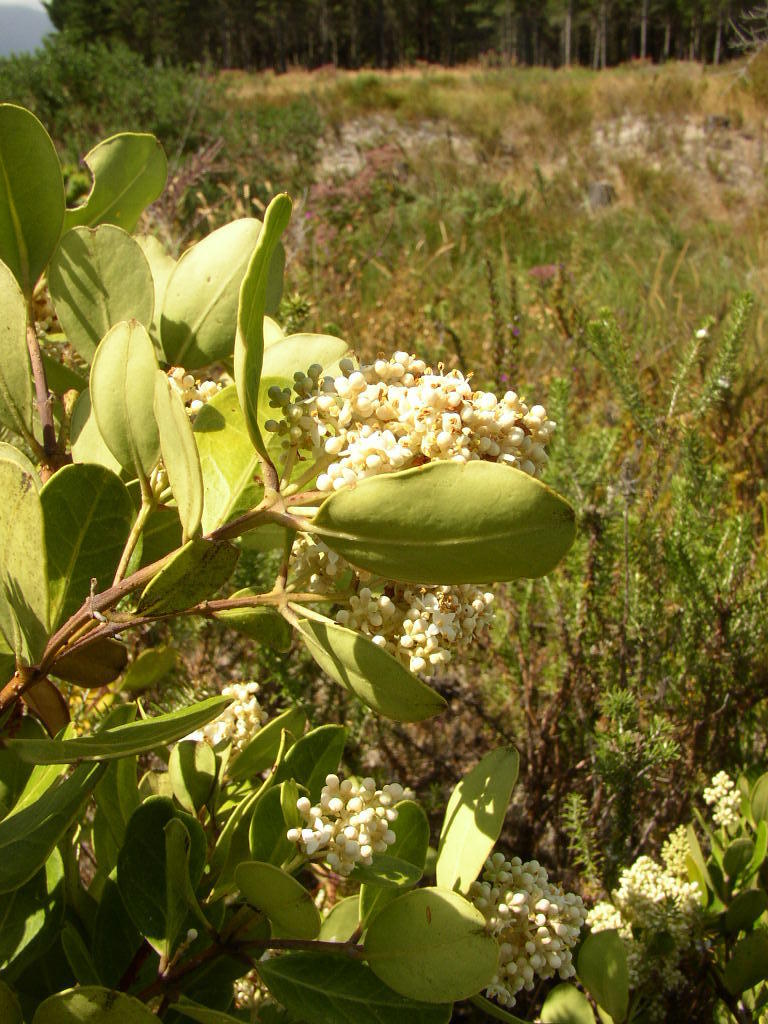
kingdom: Plantae
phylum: Tracheophyta
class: Magnoliopsida
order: Lamiales
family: Oleaceae
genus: Olea
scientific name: Olea capensis
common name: Black ironwood
